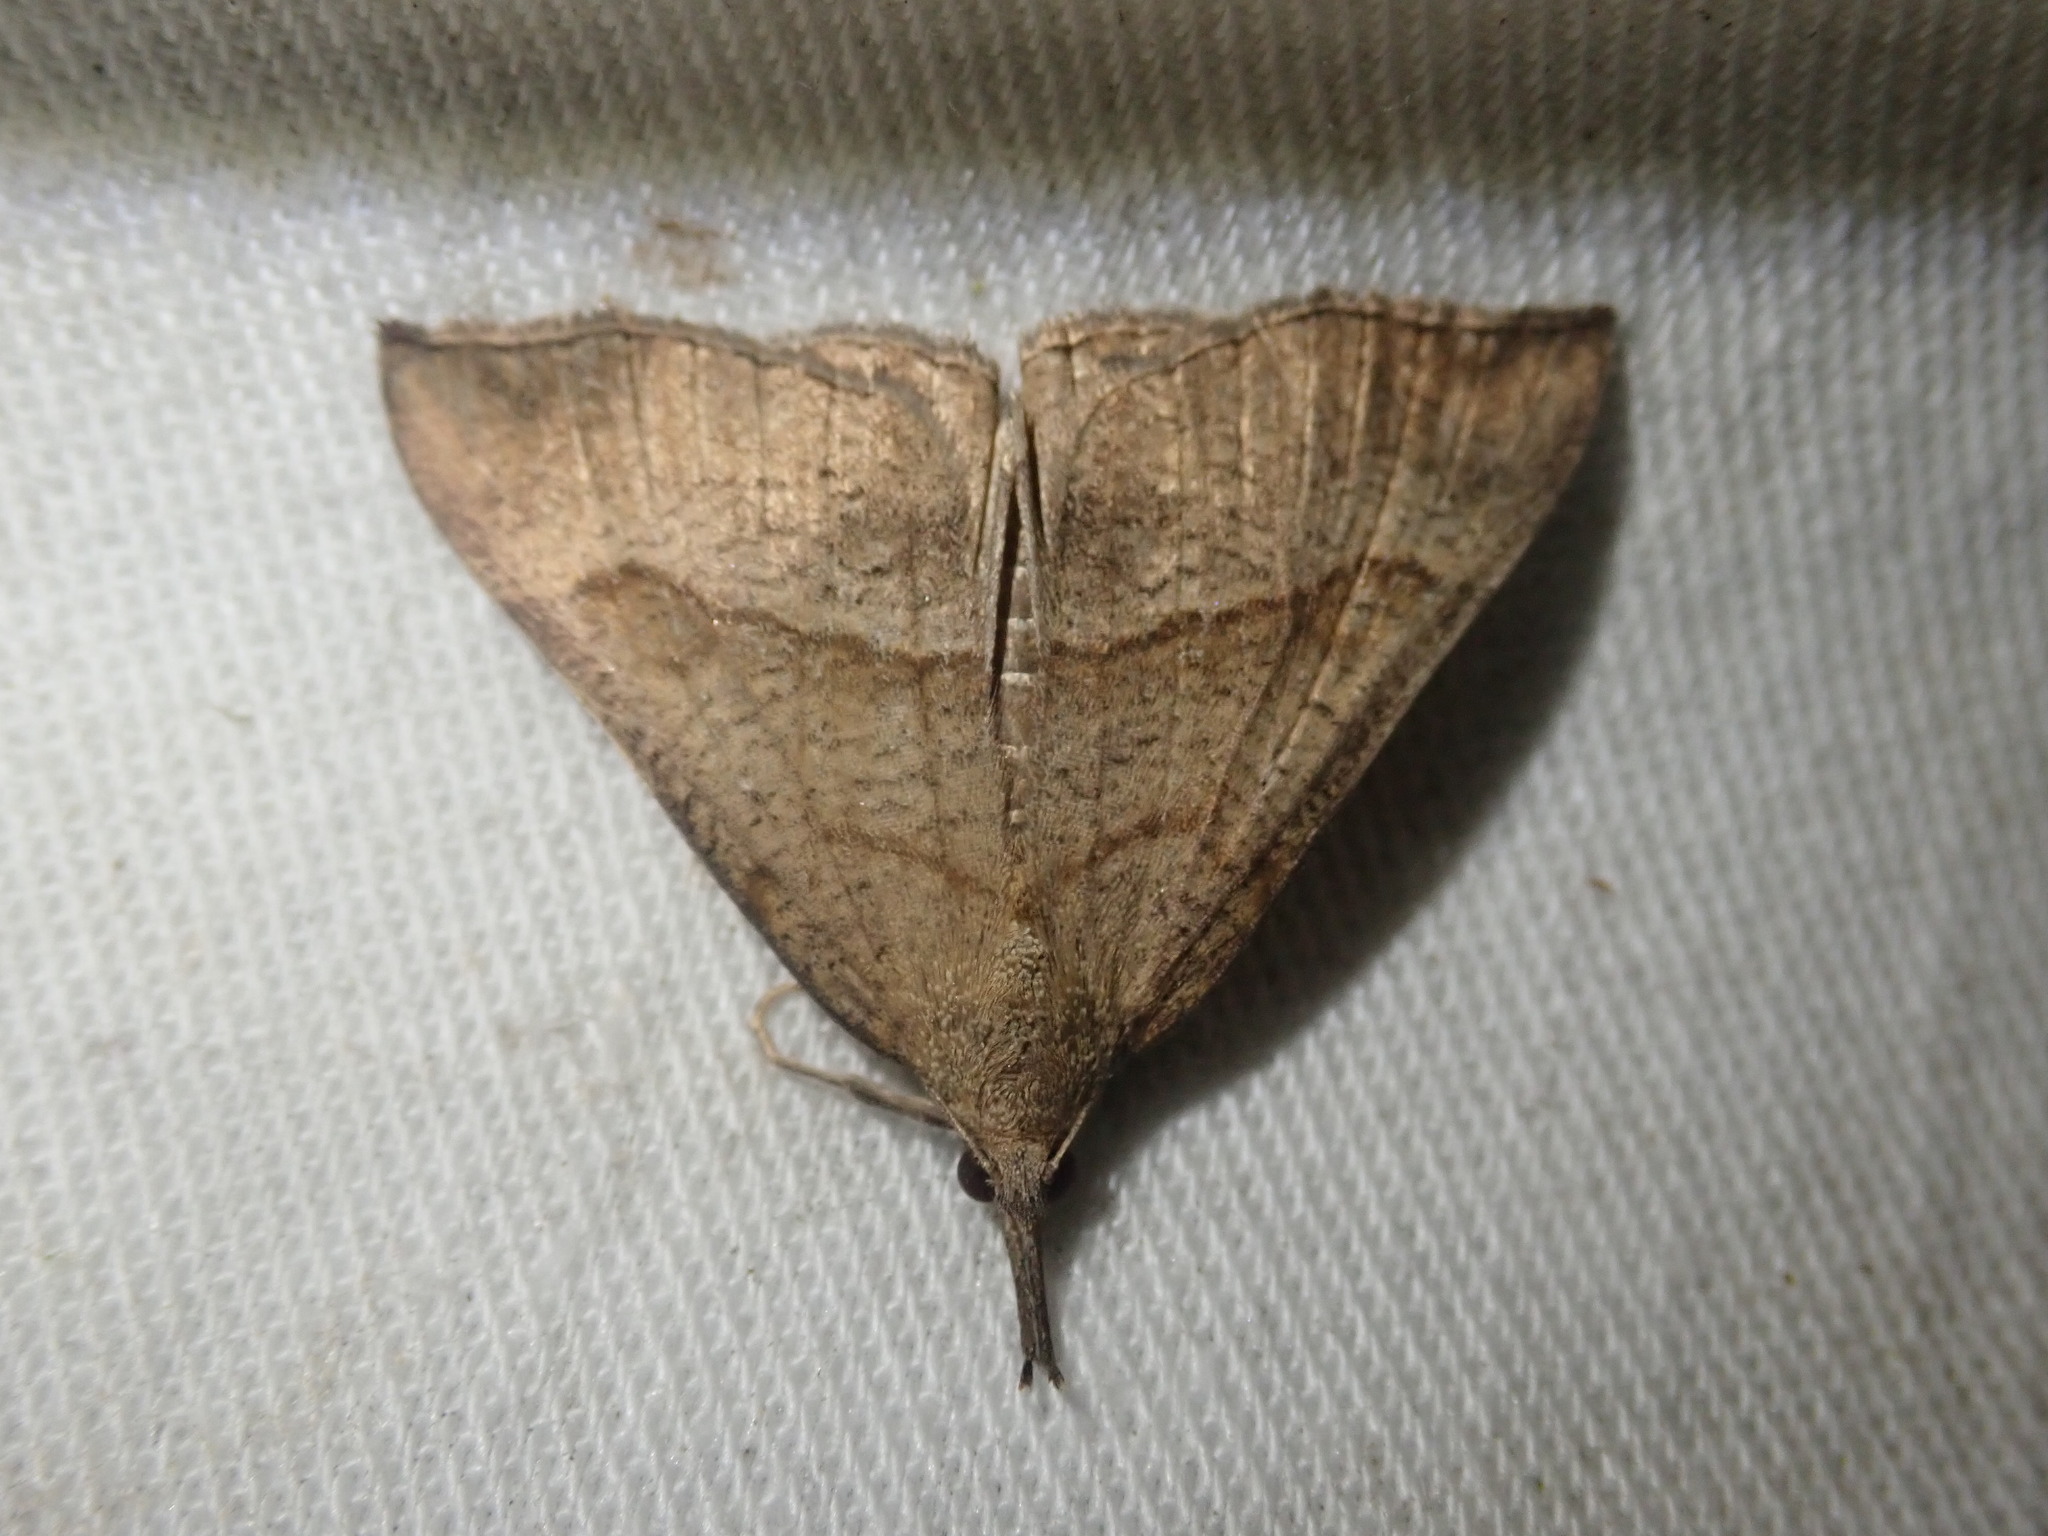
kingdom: Animalia
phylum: Arthropoda
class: Insecta
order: Lepidoptera
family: Erebidae
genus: Hypena
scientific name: Hypena proboscidalis
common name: Snout
